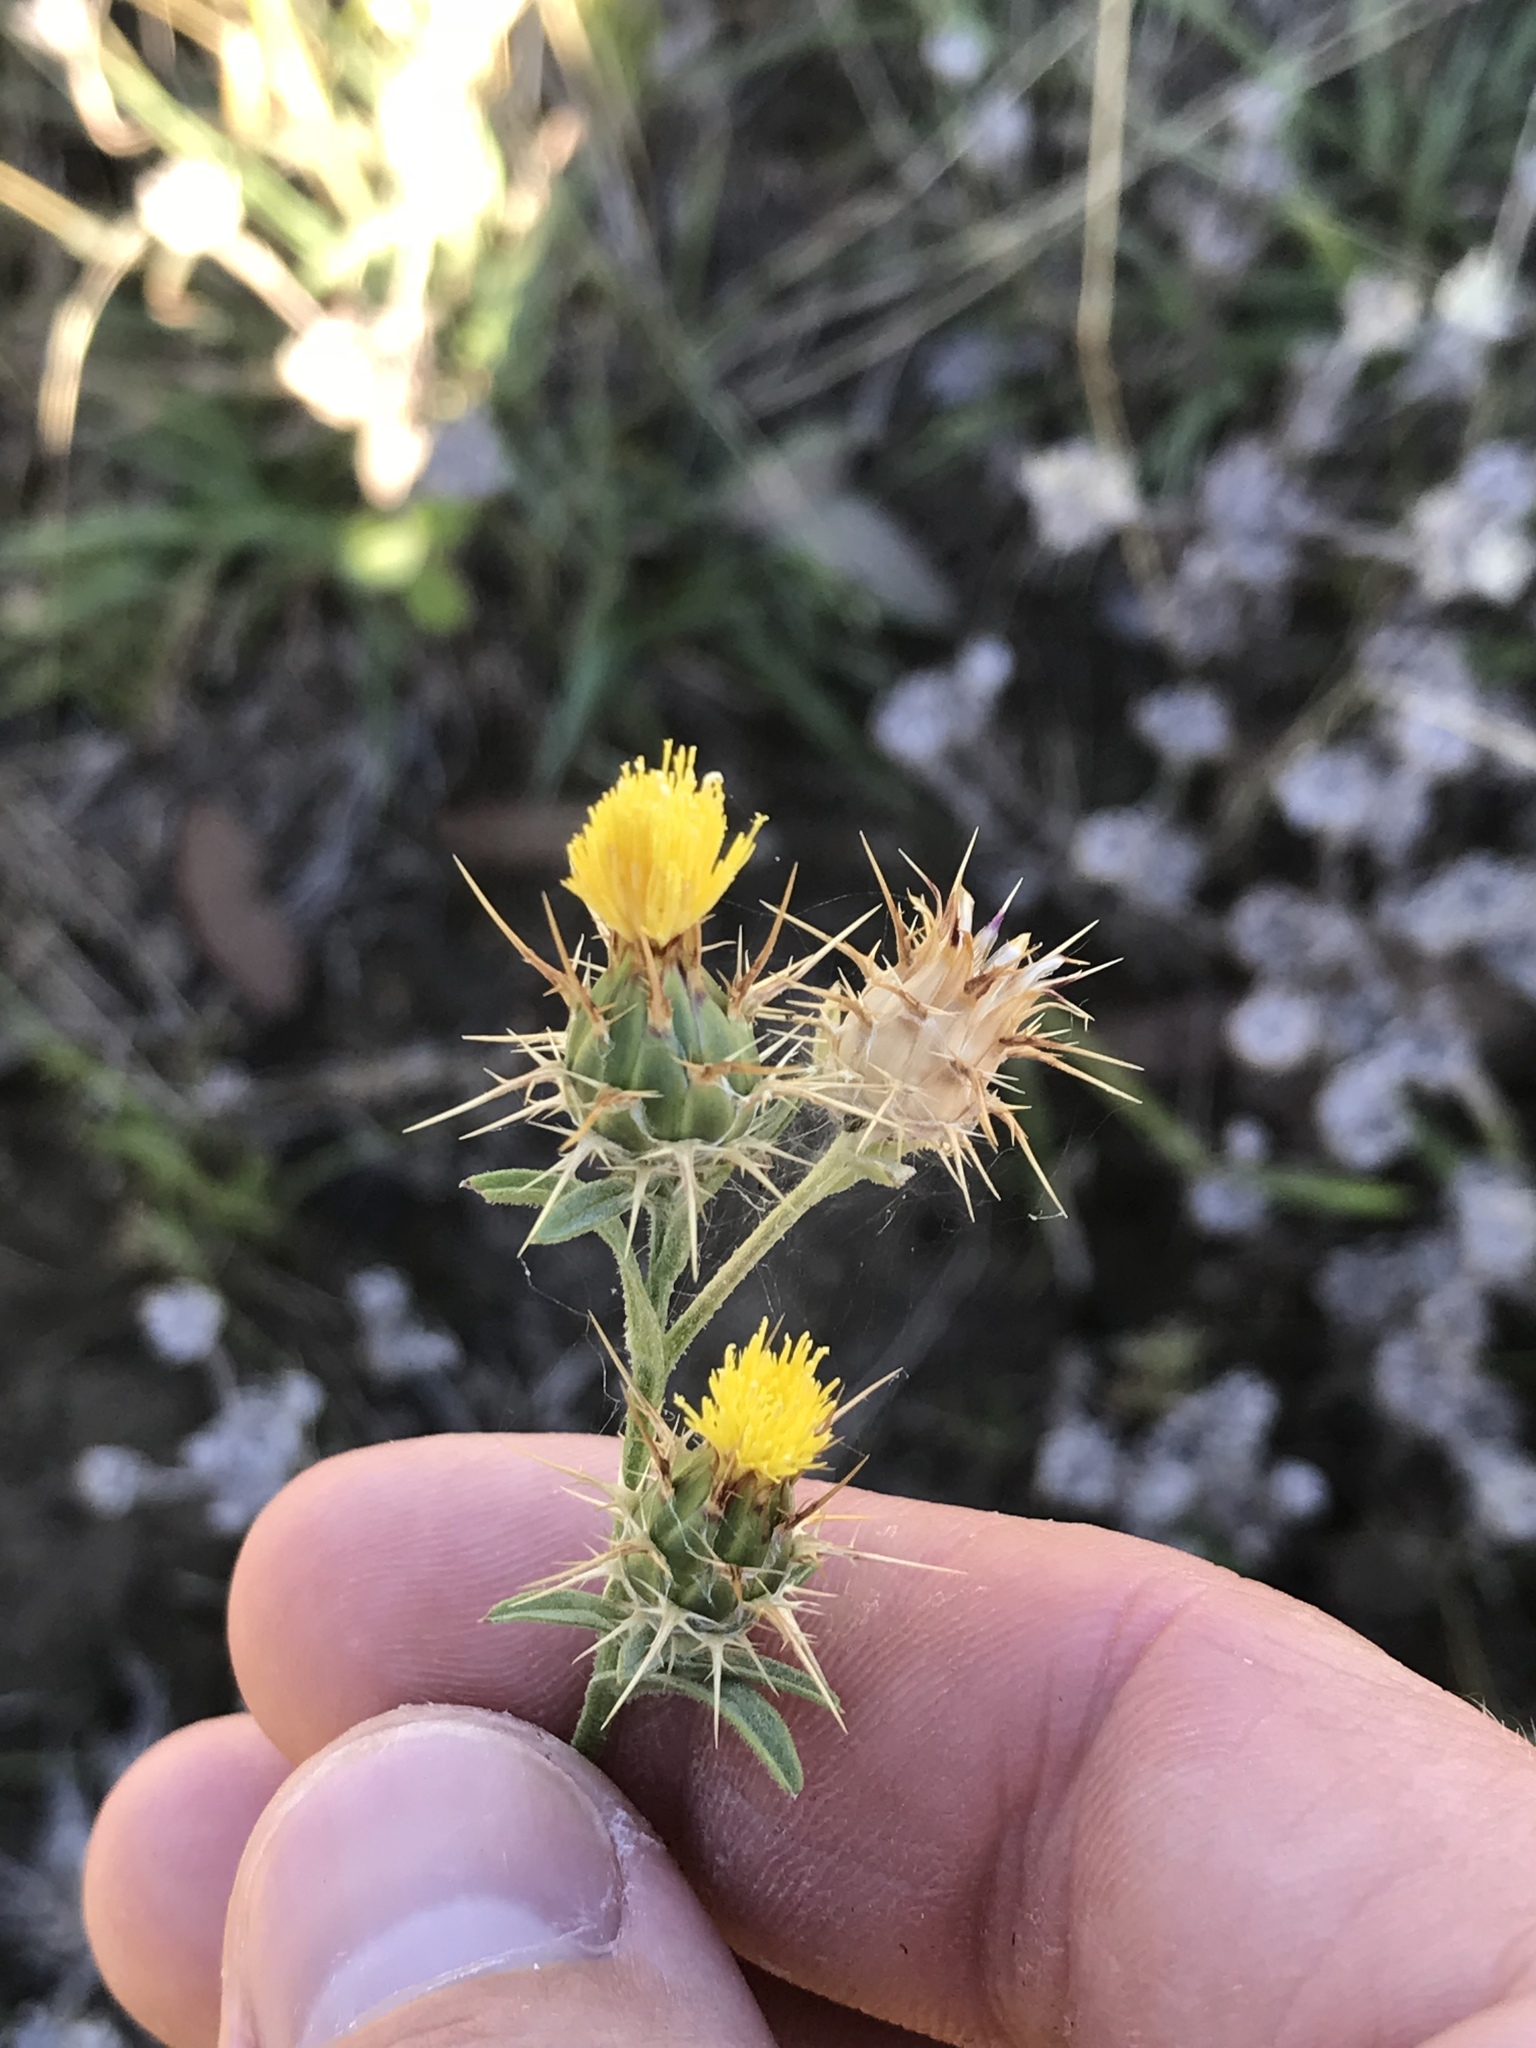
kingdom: Plantae
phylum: Tracheophyta
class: Magnoliopsida
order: Asterales
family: Asteraceae
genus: Centaurea
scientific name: Centaurea melitensis
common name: Maltese star-thistle
